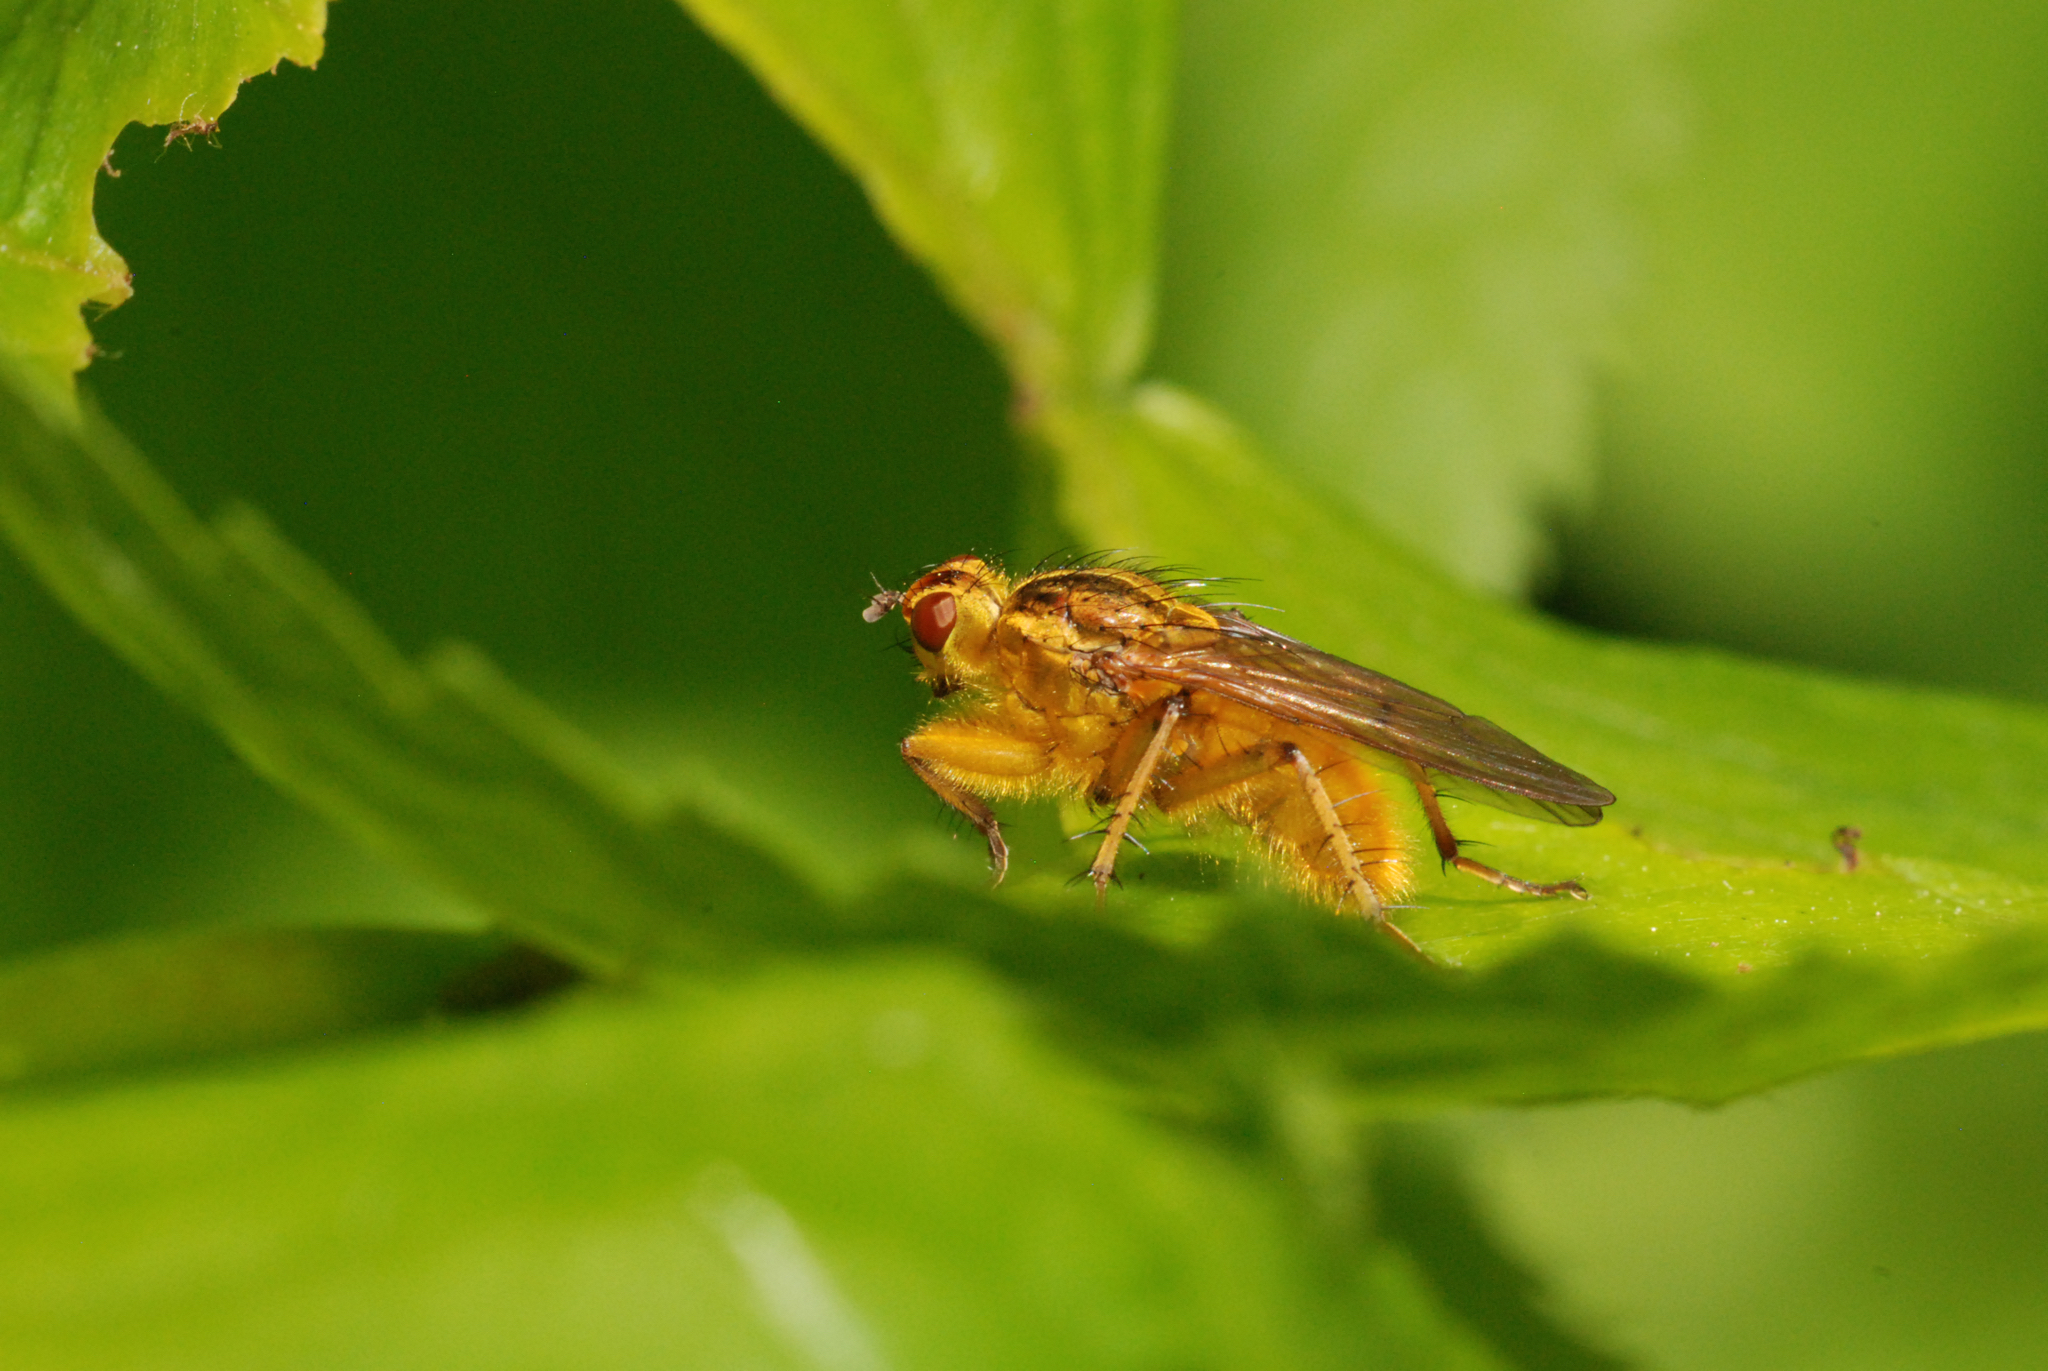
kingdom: Animalia
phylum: Arthropoda
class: Insecta
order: Diptera
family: Scathophagidae
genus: Scathophaga
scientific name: Scathophaga stercoraria
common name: Yellow dung fly
